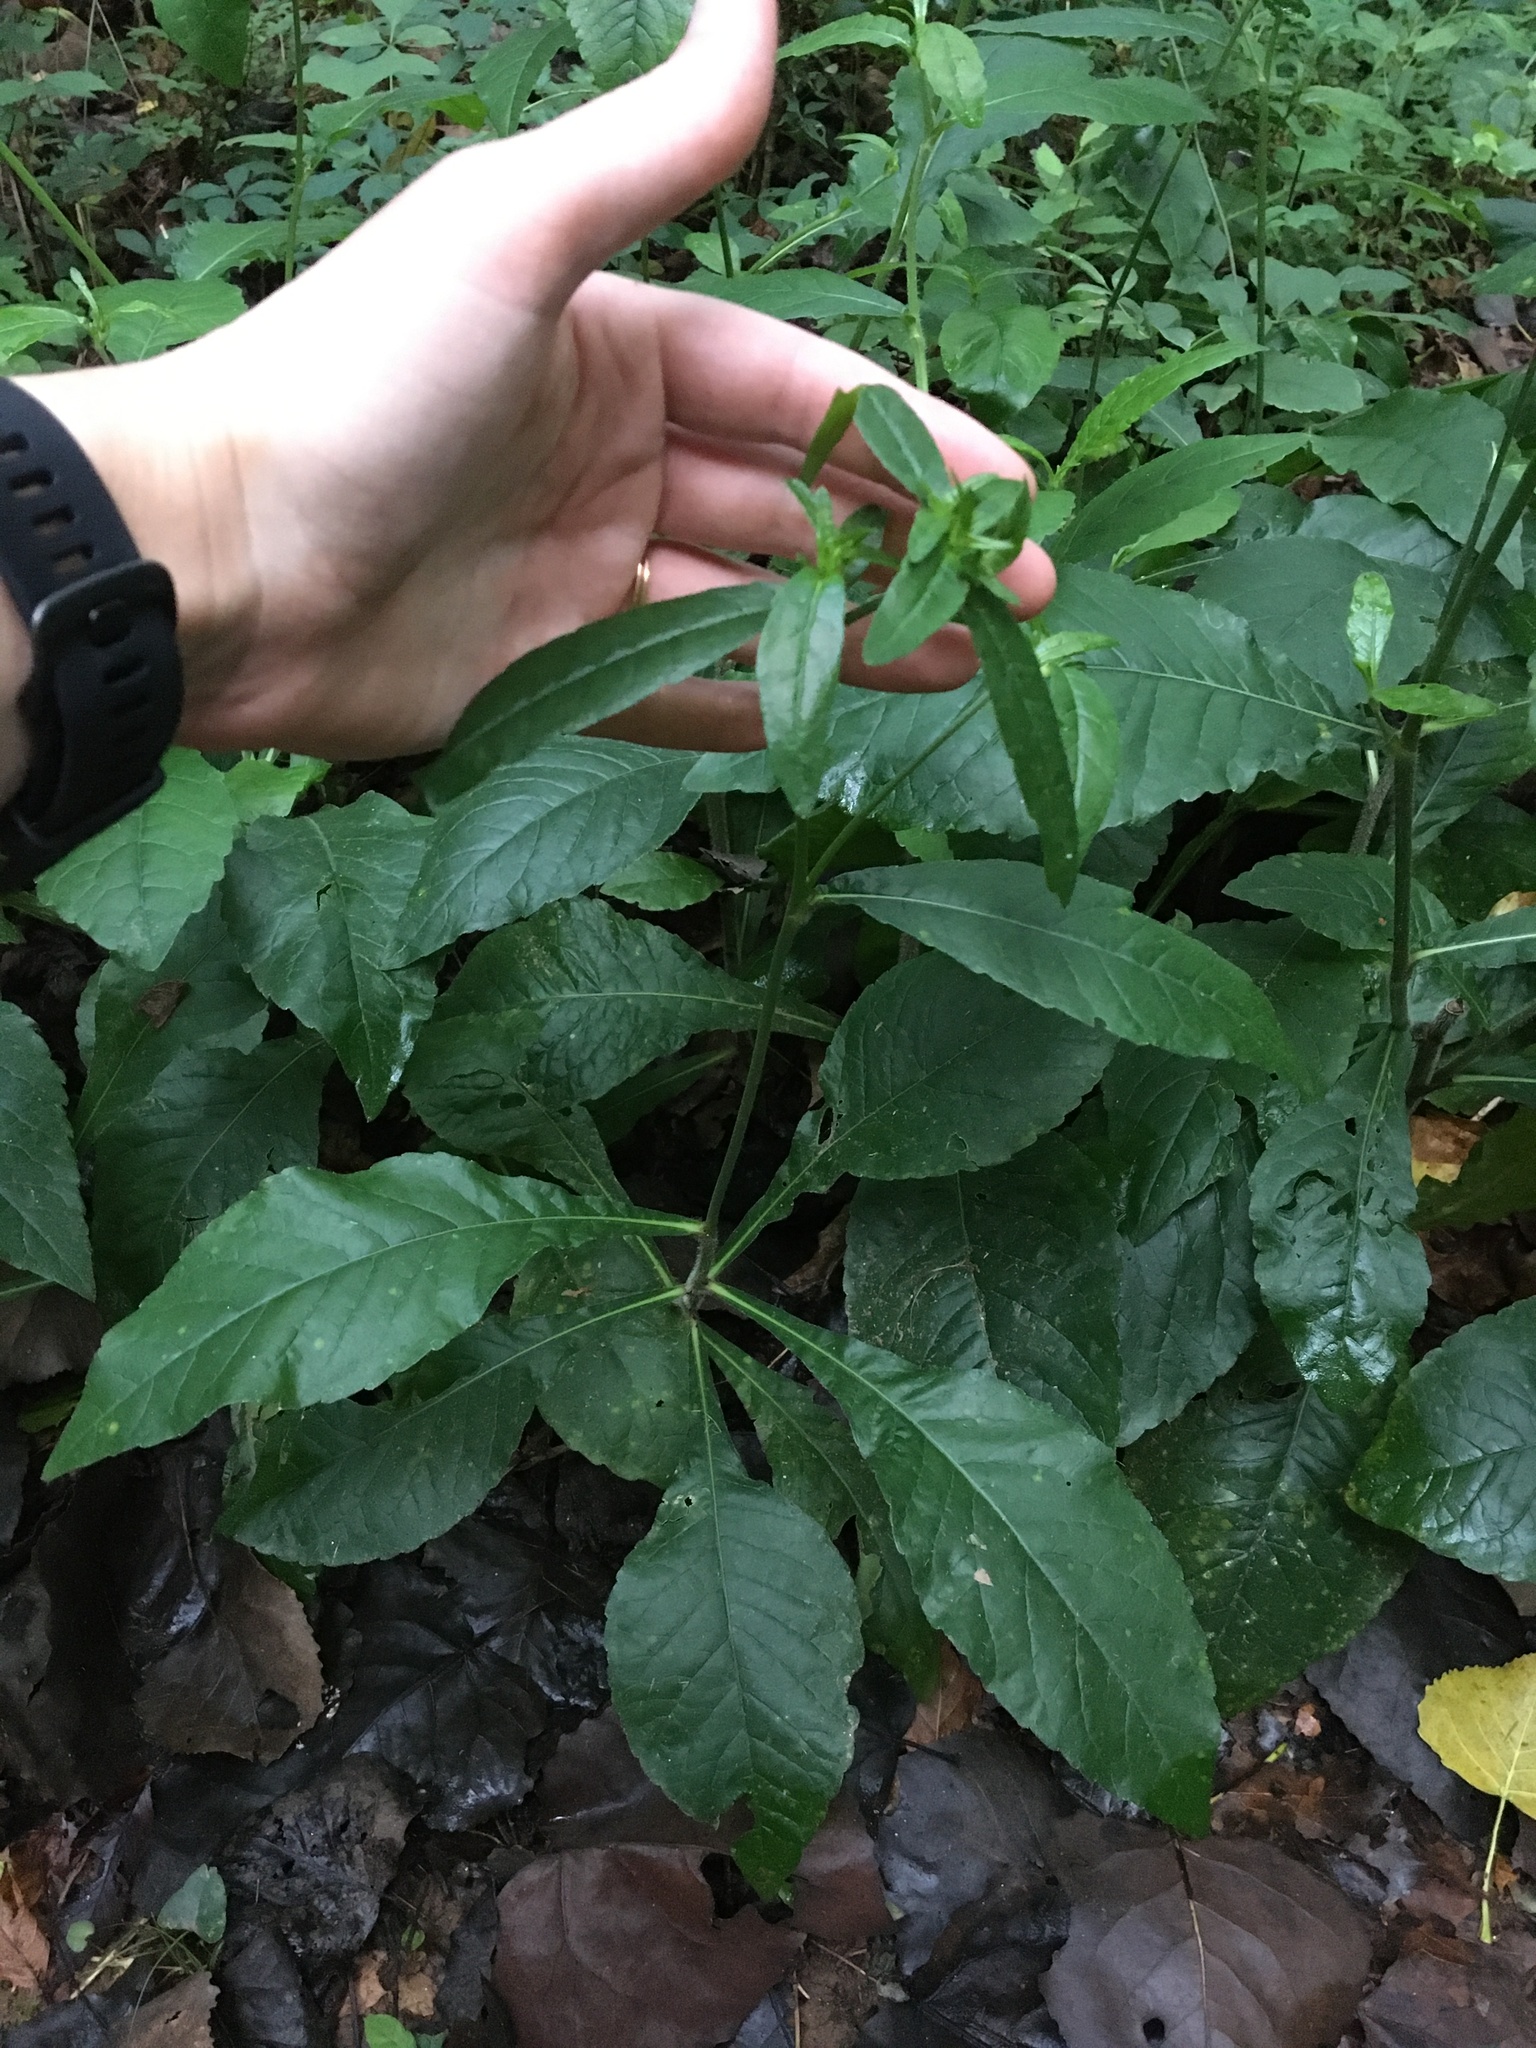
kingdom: Plantae
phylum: Tracheophyta
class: Magnoliopsida
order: Asterales
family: Asteraceae
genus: Elephantopus
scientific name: Elephantopus carolinianus
